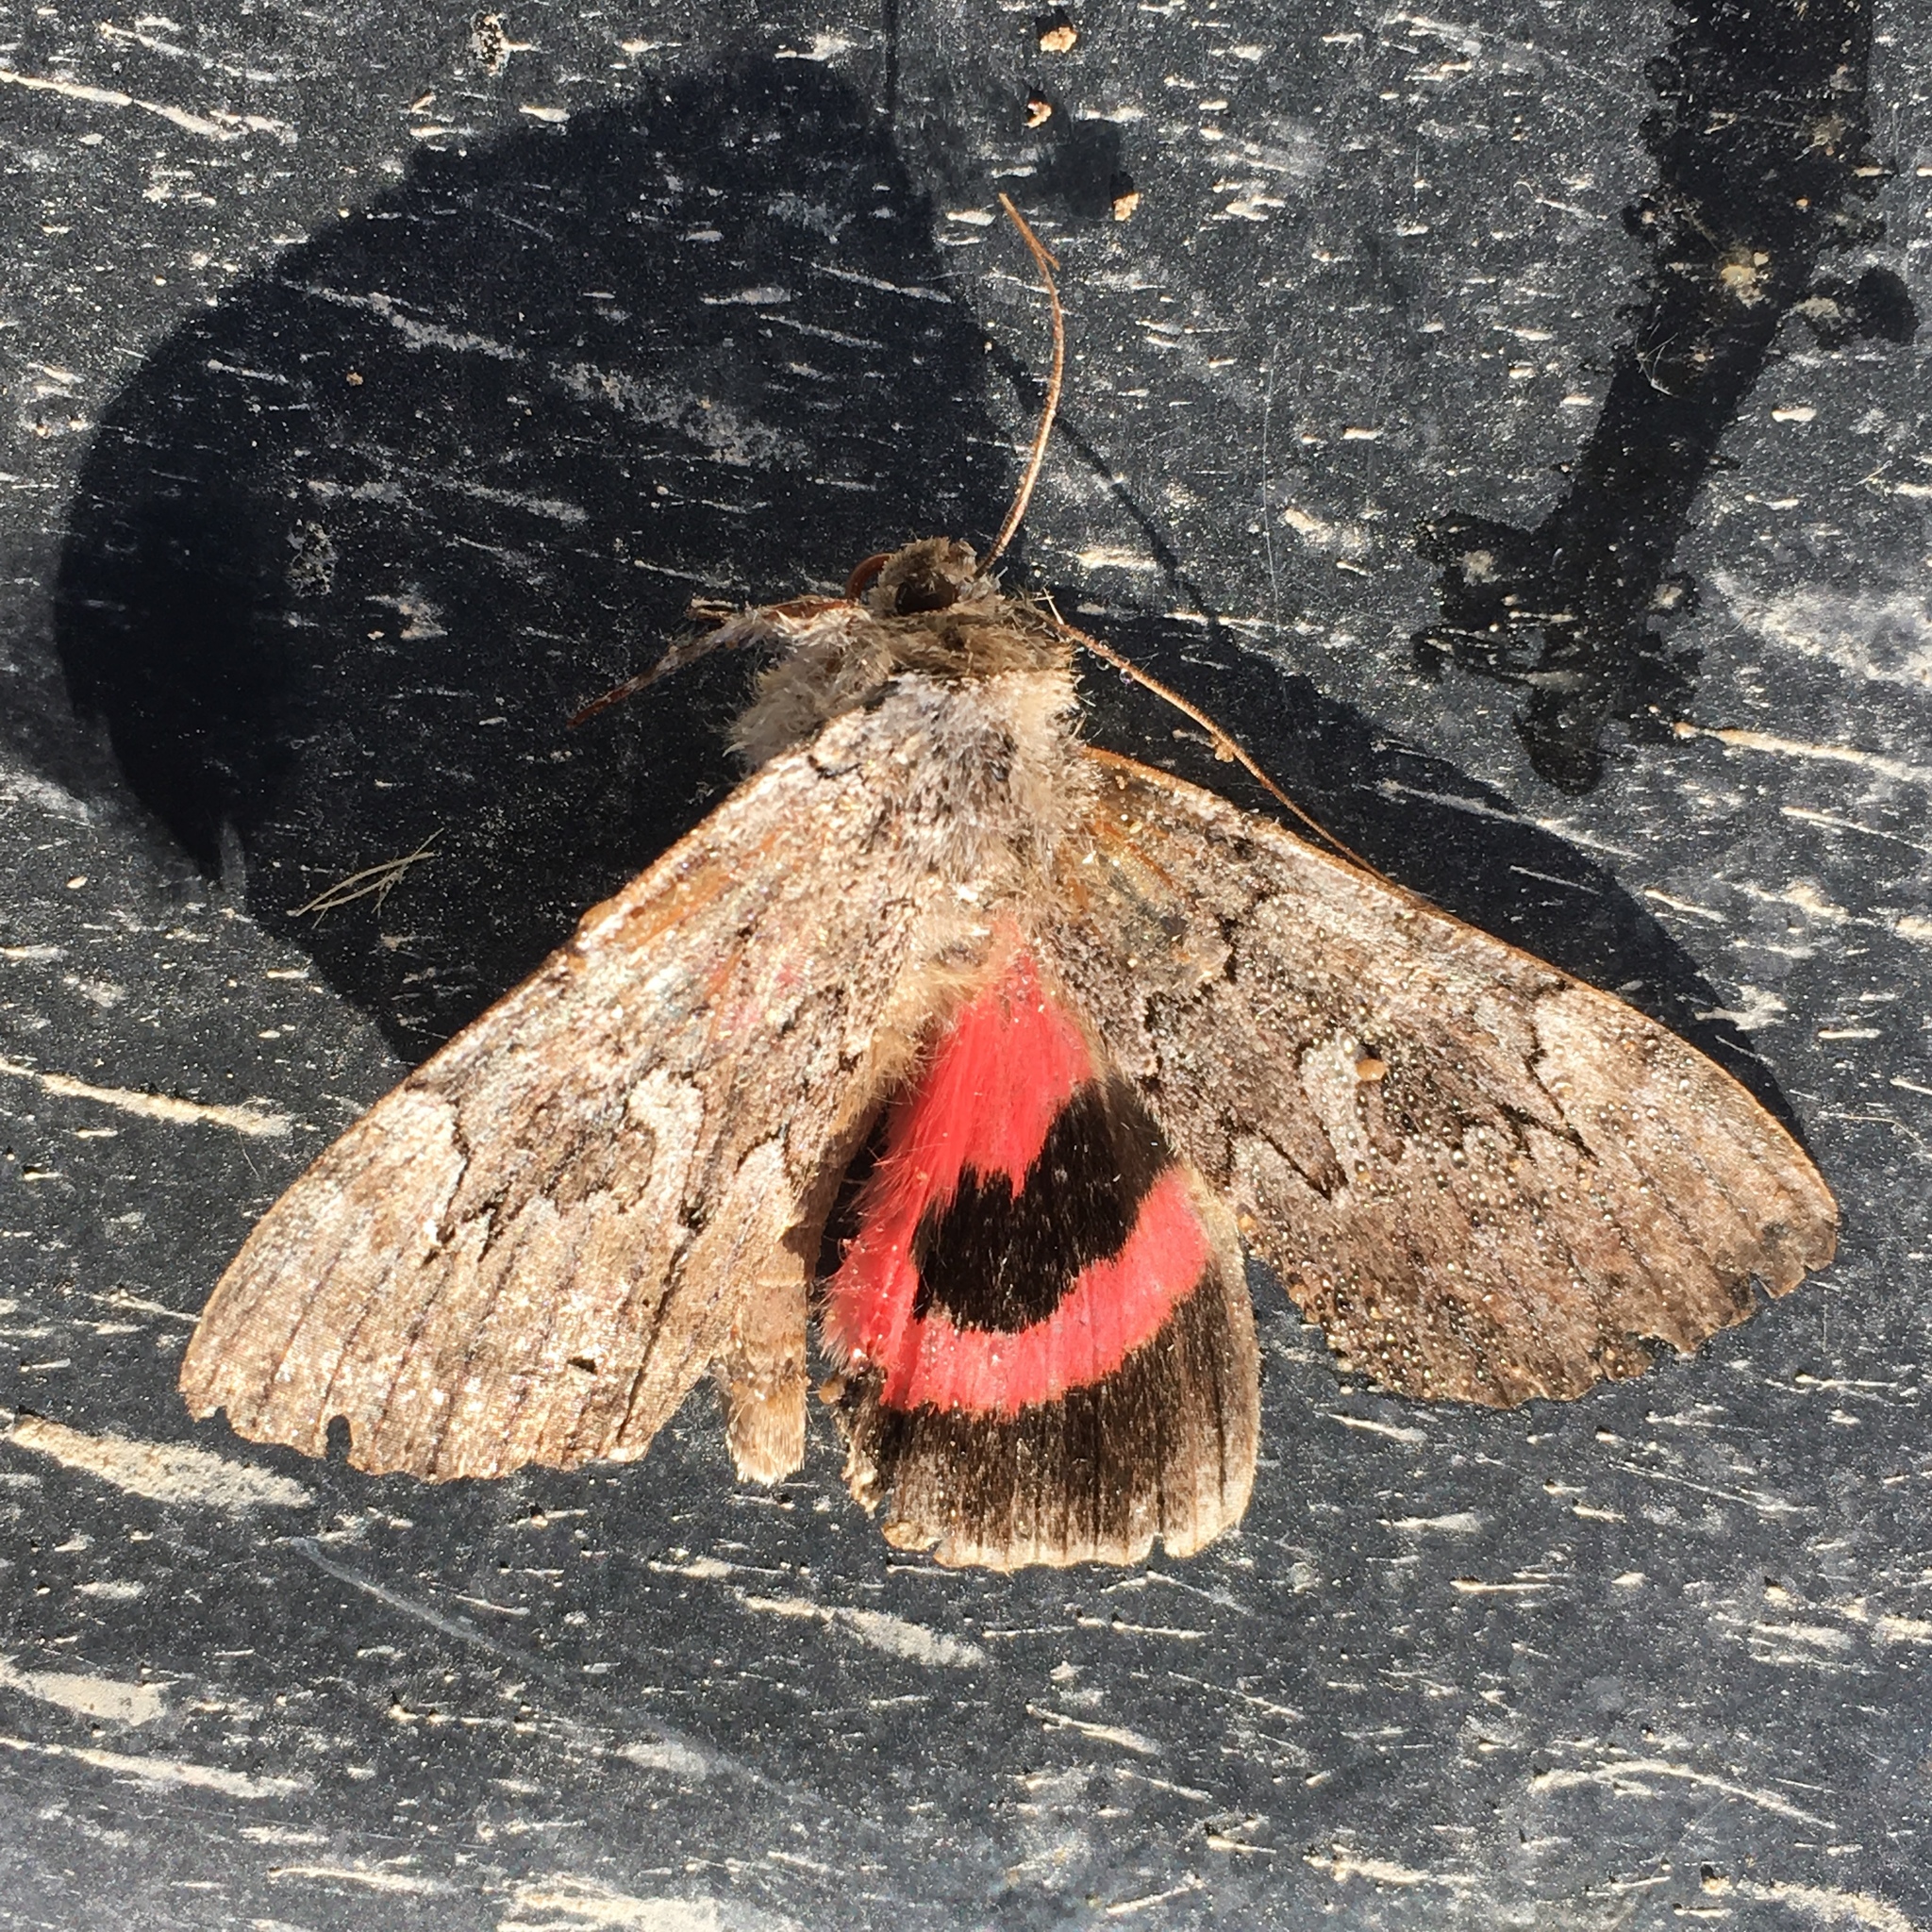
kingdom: Animalia
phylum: Arthropoda
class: Insecta
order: Lepidoptera
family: Erebidae
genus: Catocala
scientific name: Catocala concumbens
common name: Pink underwing
